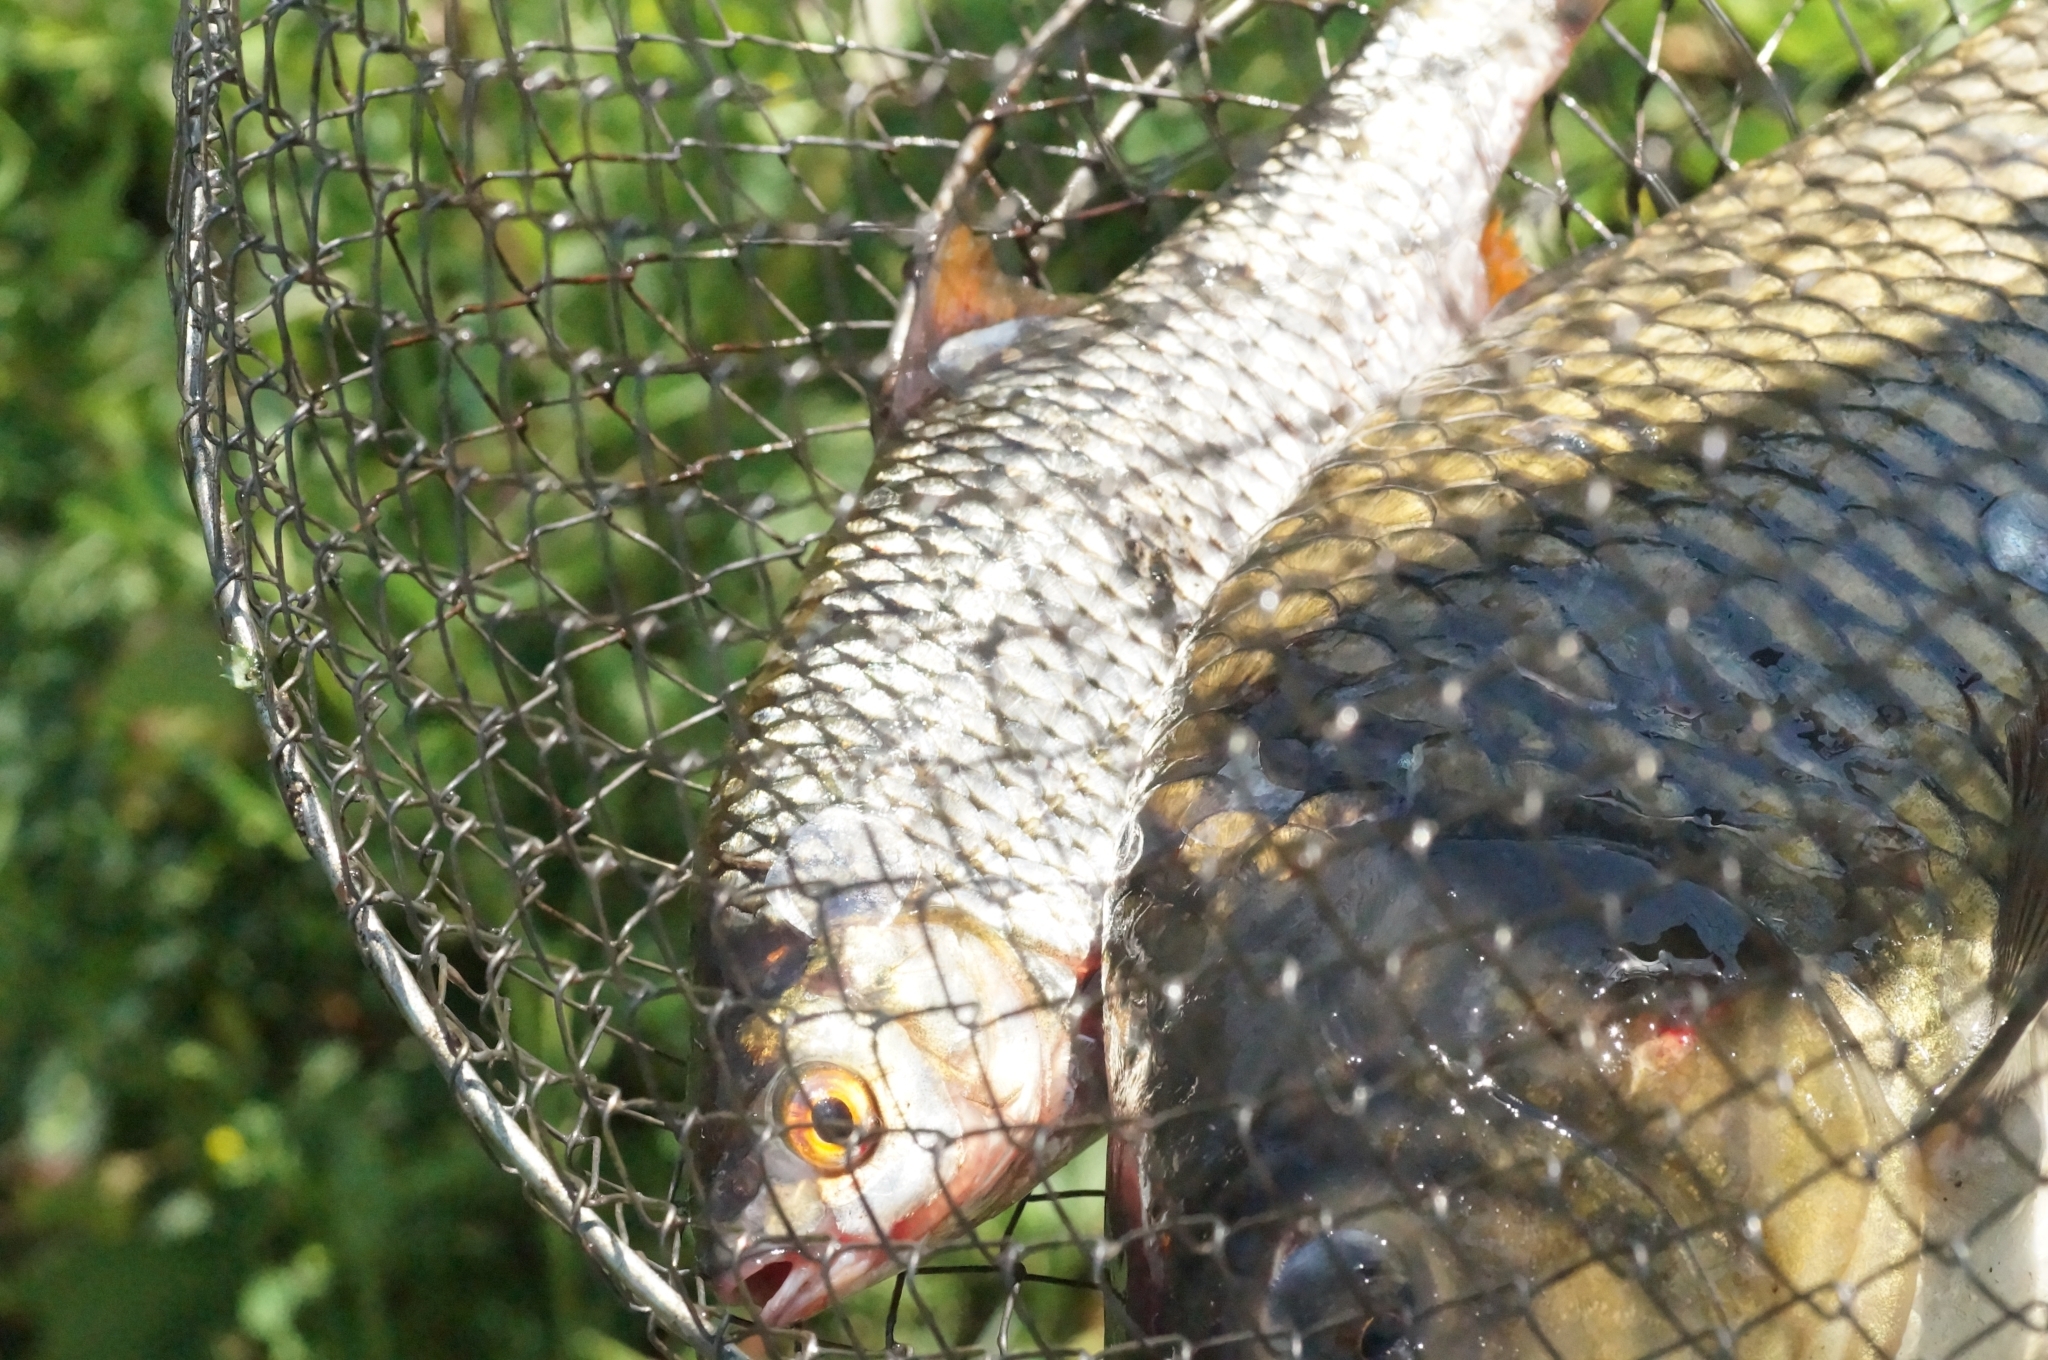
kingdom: Animalia
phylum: Chordata
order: Cypriniformes
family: Cyprinidae
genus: Scardinius
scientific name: Scardinius erythrophthalmus
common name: Rudd
